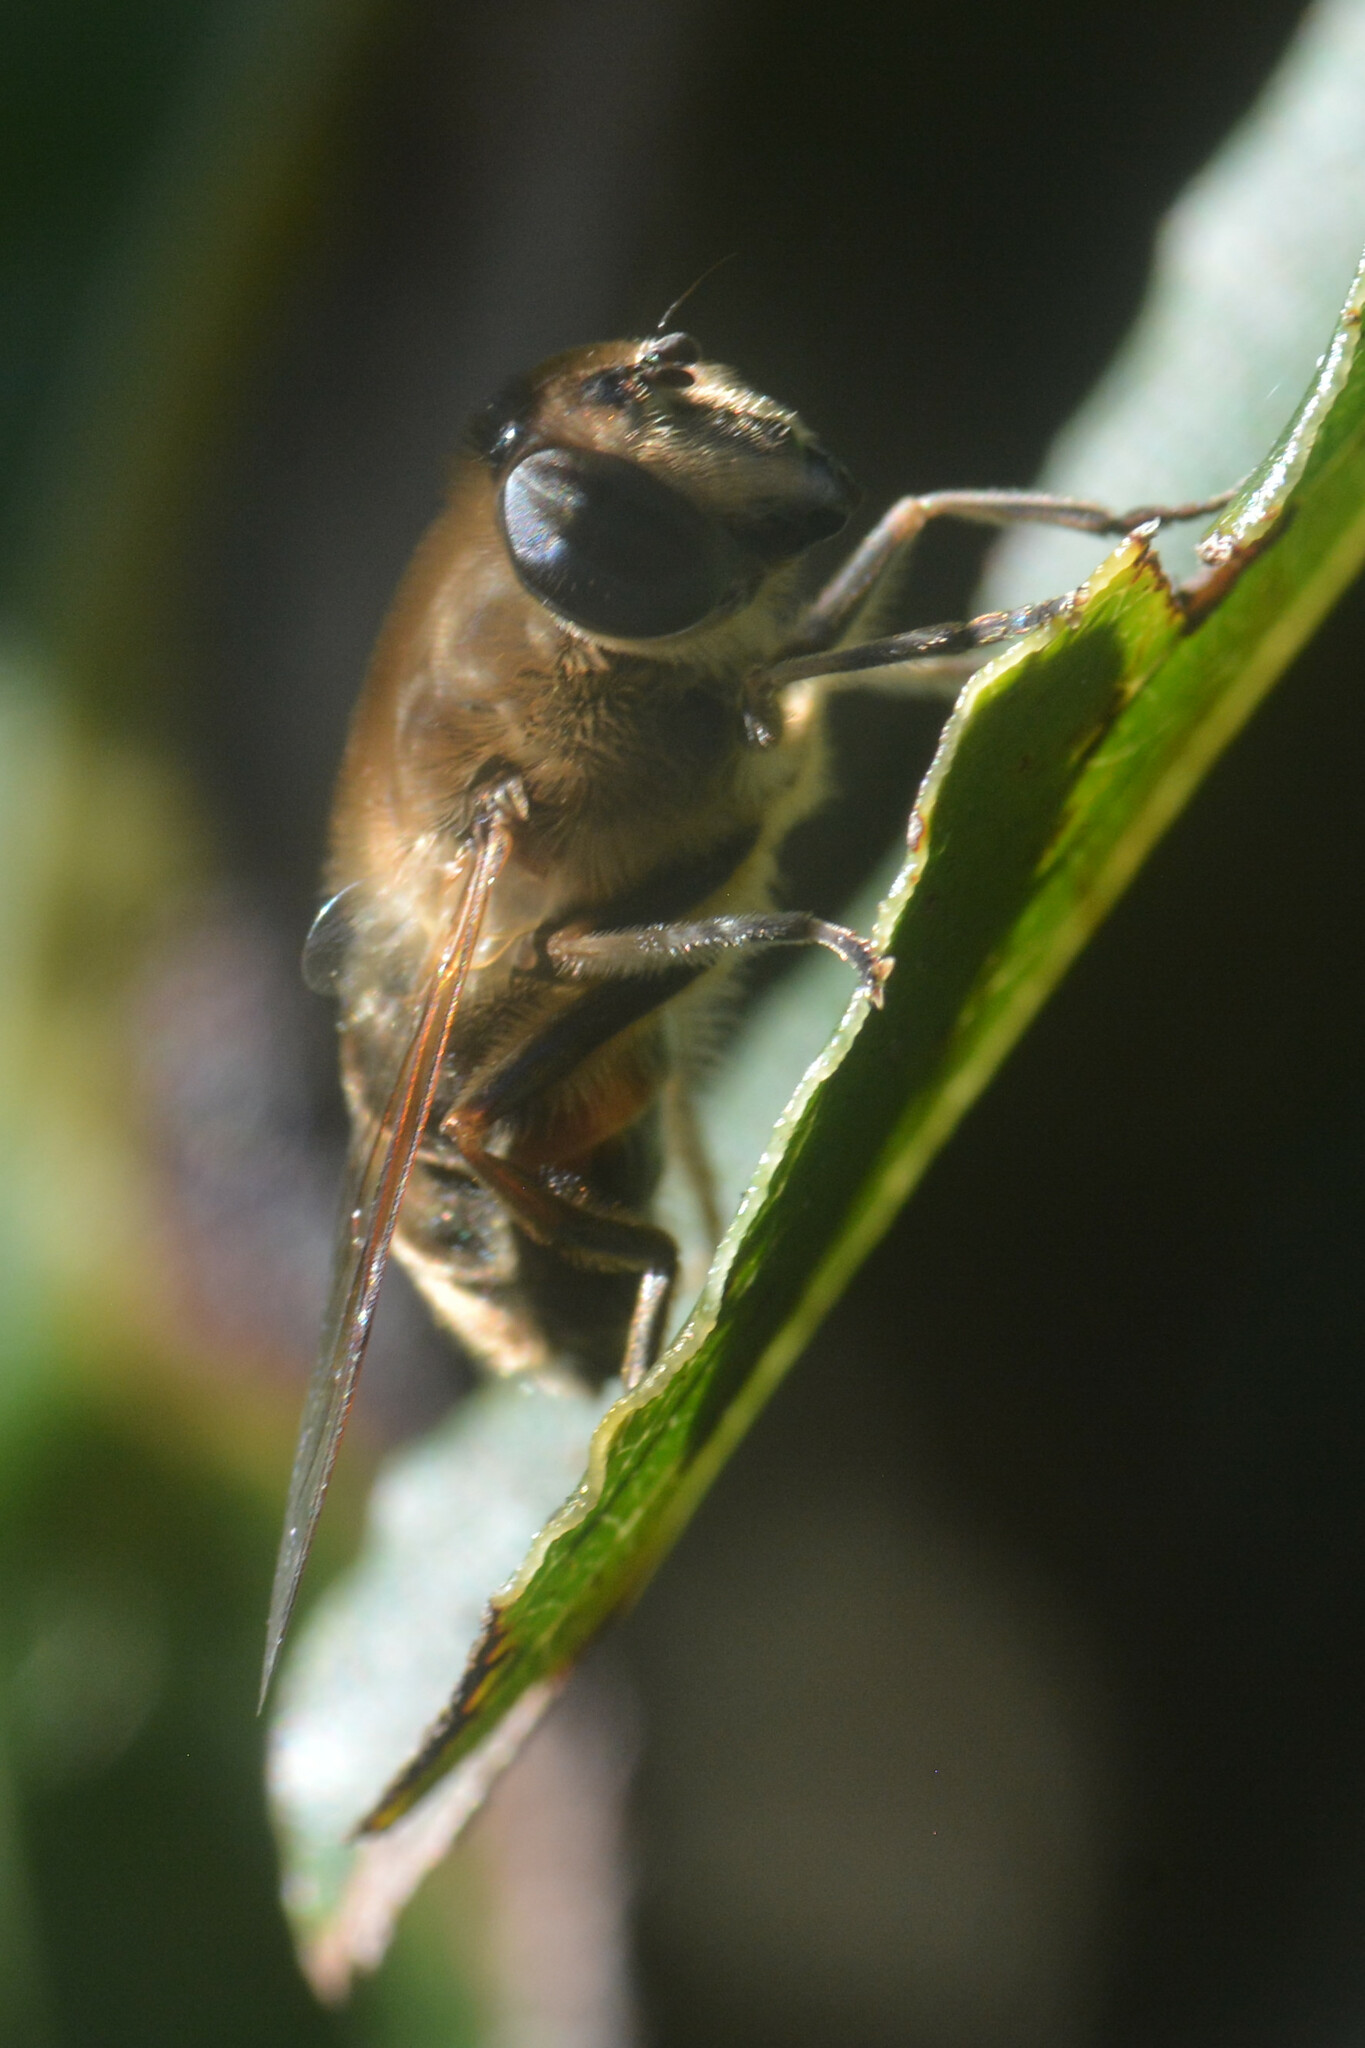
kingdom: Animalia
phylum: Arthropoda
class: Insecta
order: Diptera
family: Syrphidae
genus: Eristalis
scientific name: Eristalis tenax
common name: Drone fly
